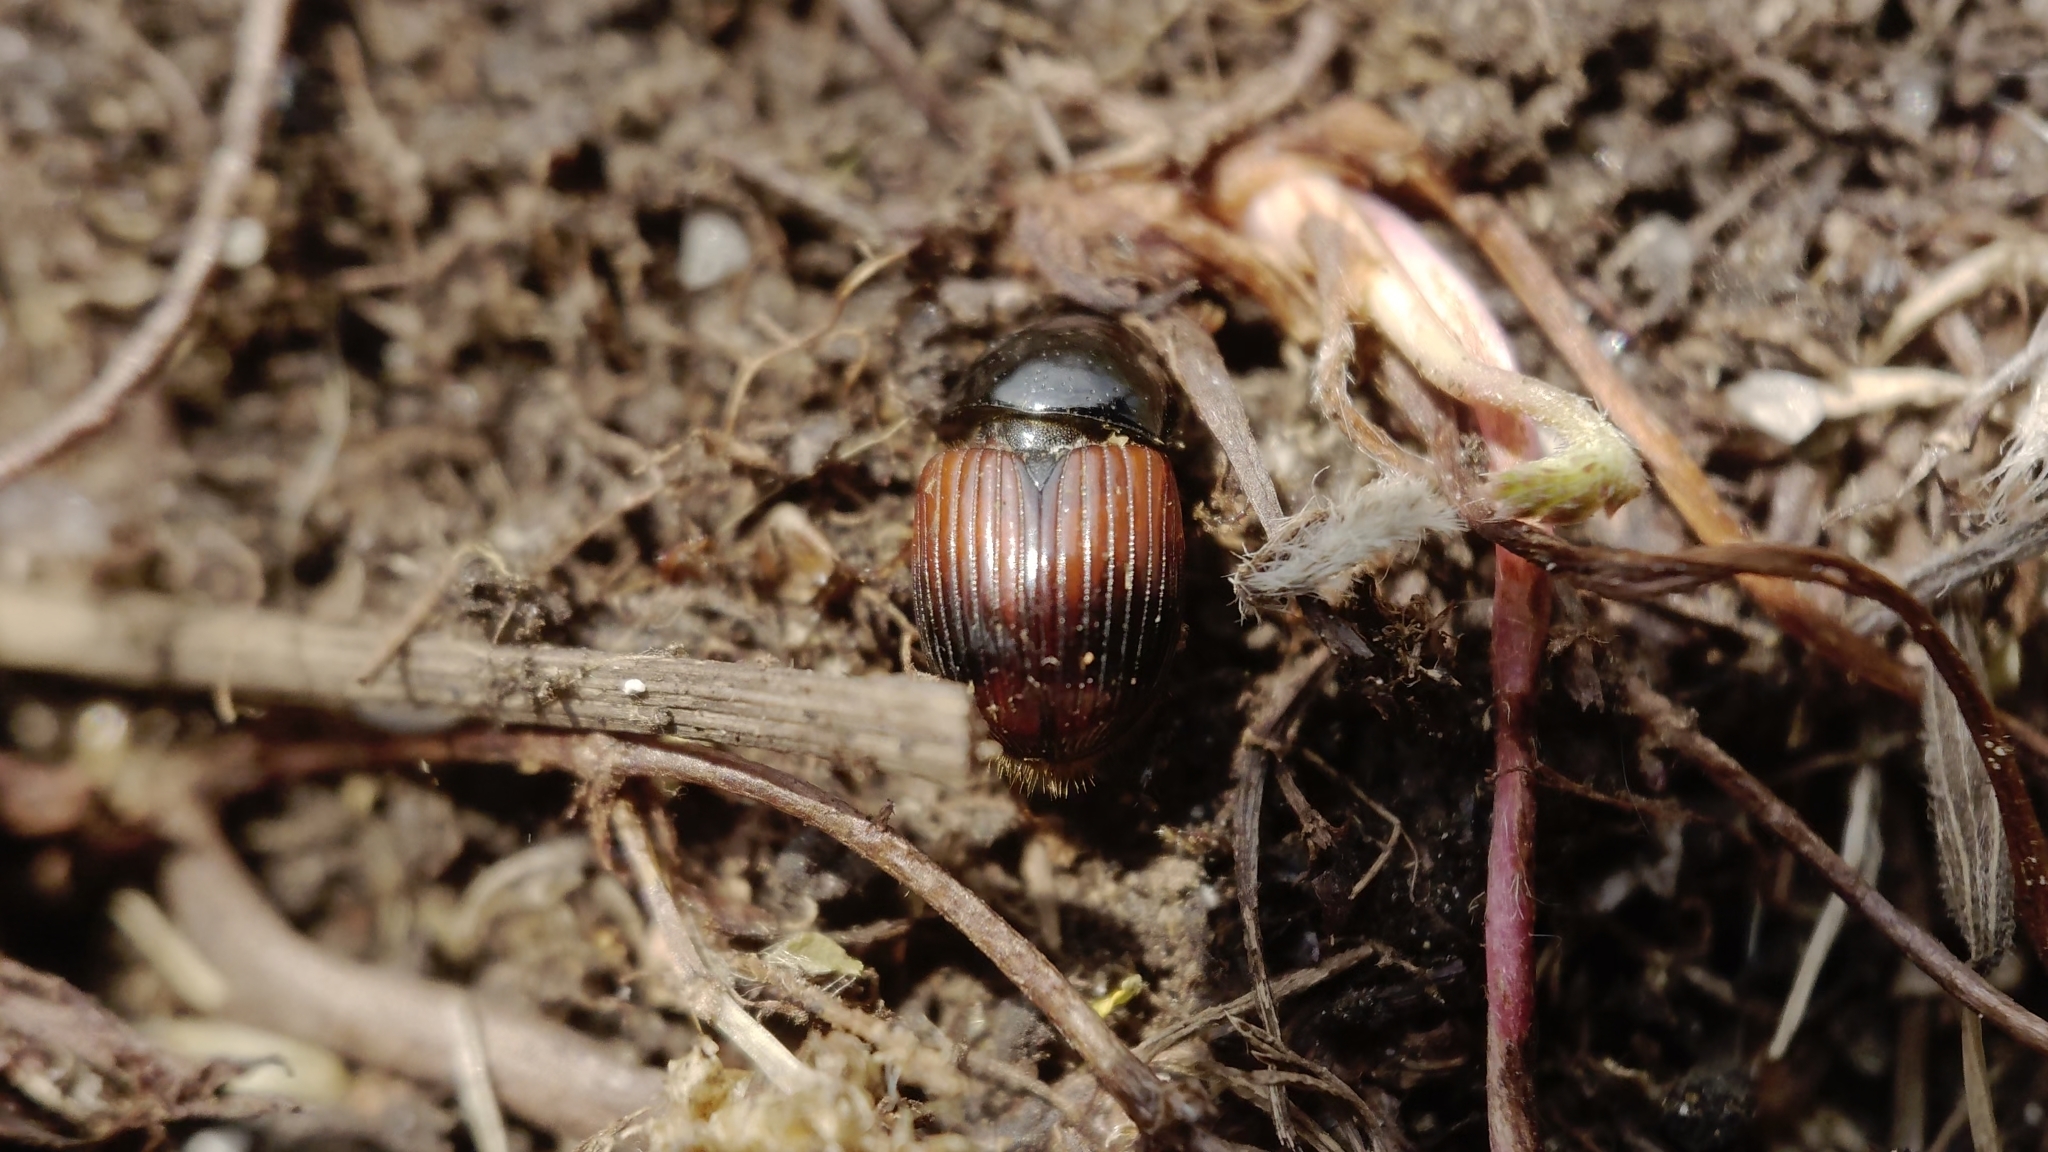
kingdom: Animalia
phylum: Arthropoda
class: Insecta
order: Coleoptera
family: Scarabaeidae
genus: Rhodaphodius
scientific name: Rhodaphodius foetens
